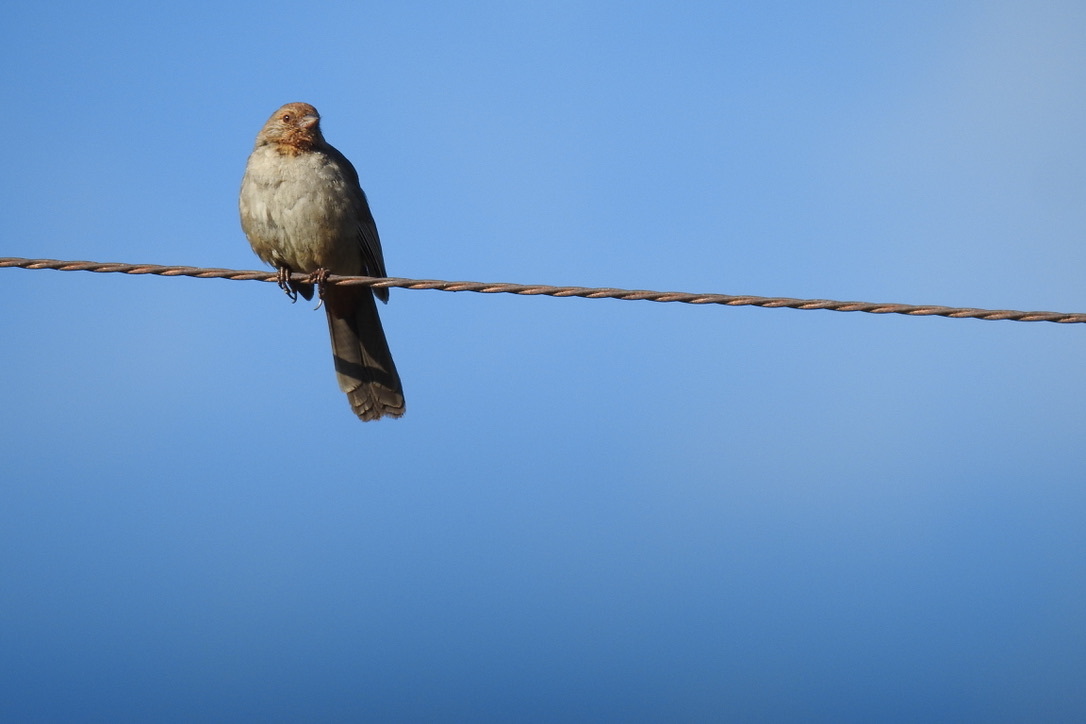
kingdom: Animalia
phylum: Chordata
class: Aves
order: Passeriformes
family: Passerellidae
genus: Melozone
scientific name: Melozone crissalis
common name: California towhee
